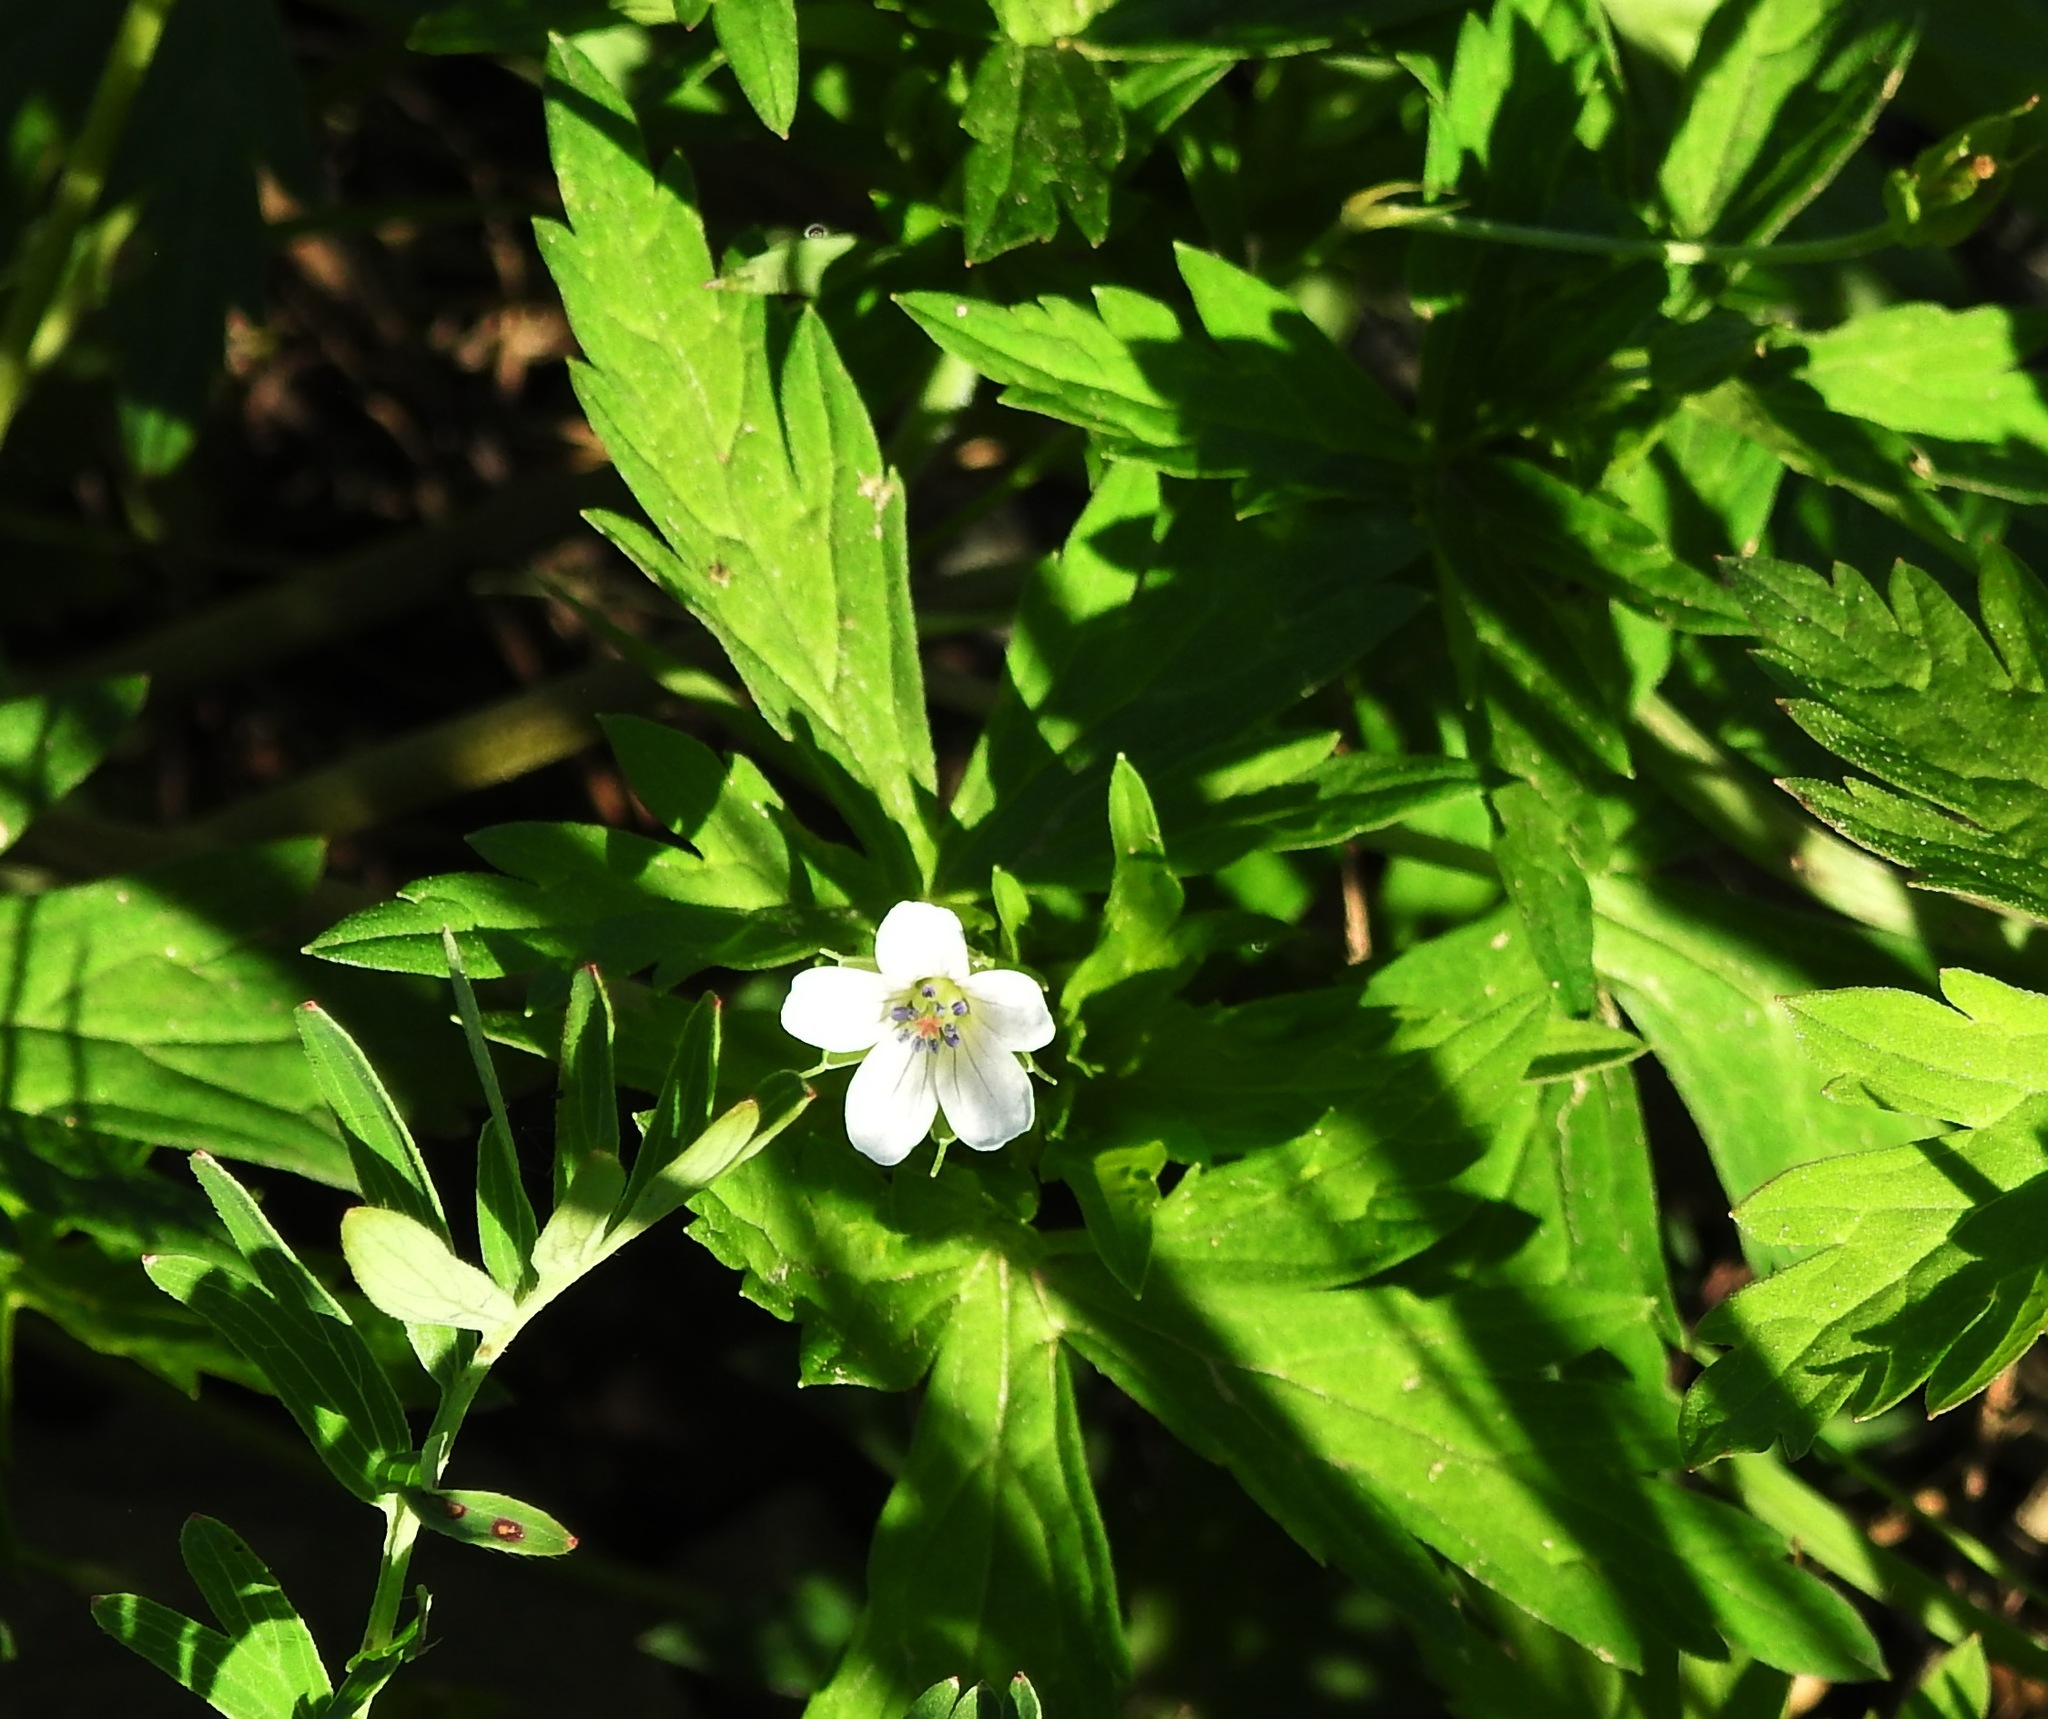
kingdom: Plantae
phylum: Tracheophyta
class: Magnoliopsida
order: Geraniales
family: Geraniaceae
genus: Geranium
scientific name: Geranium sibiricum
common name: Siberian crane's-bill
